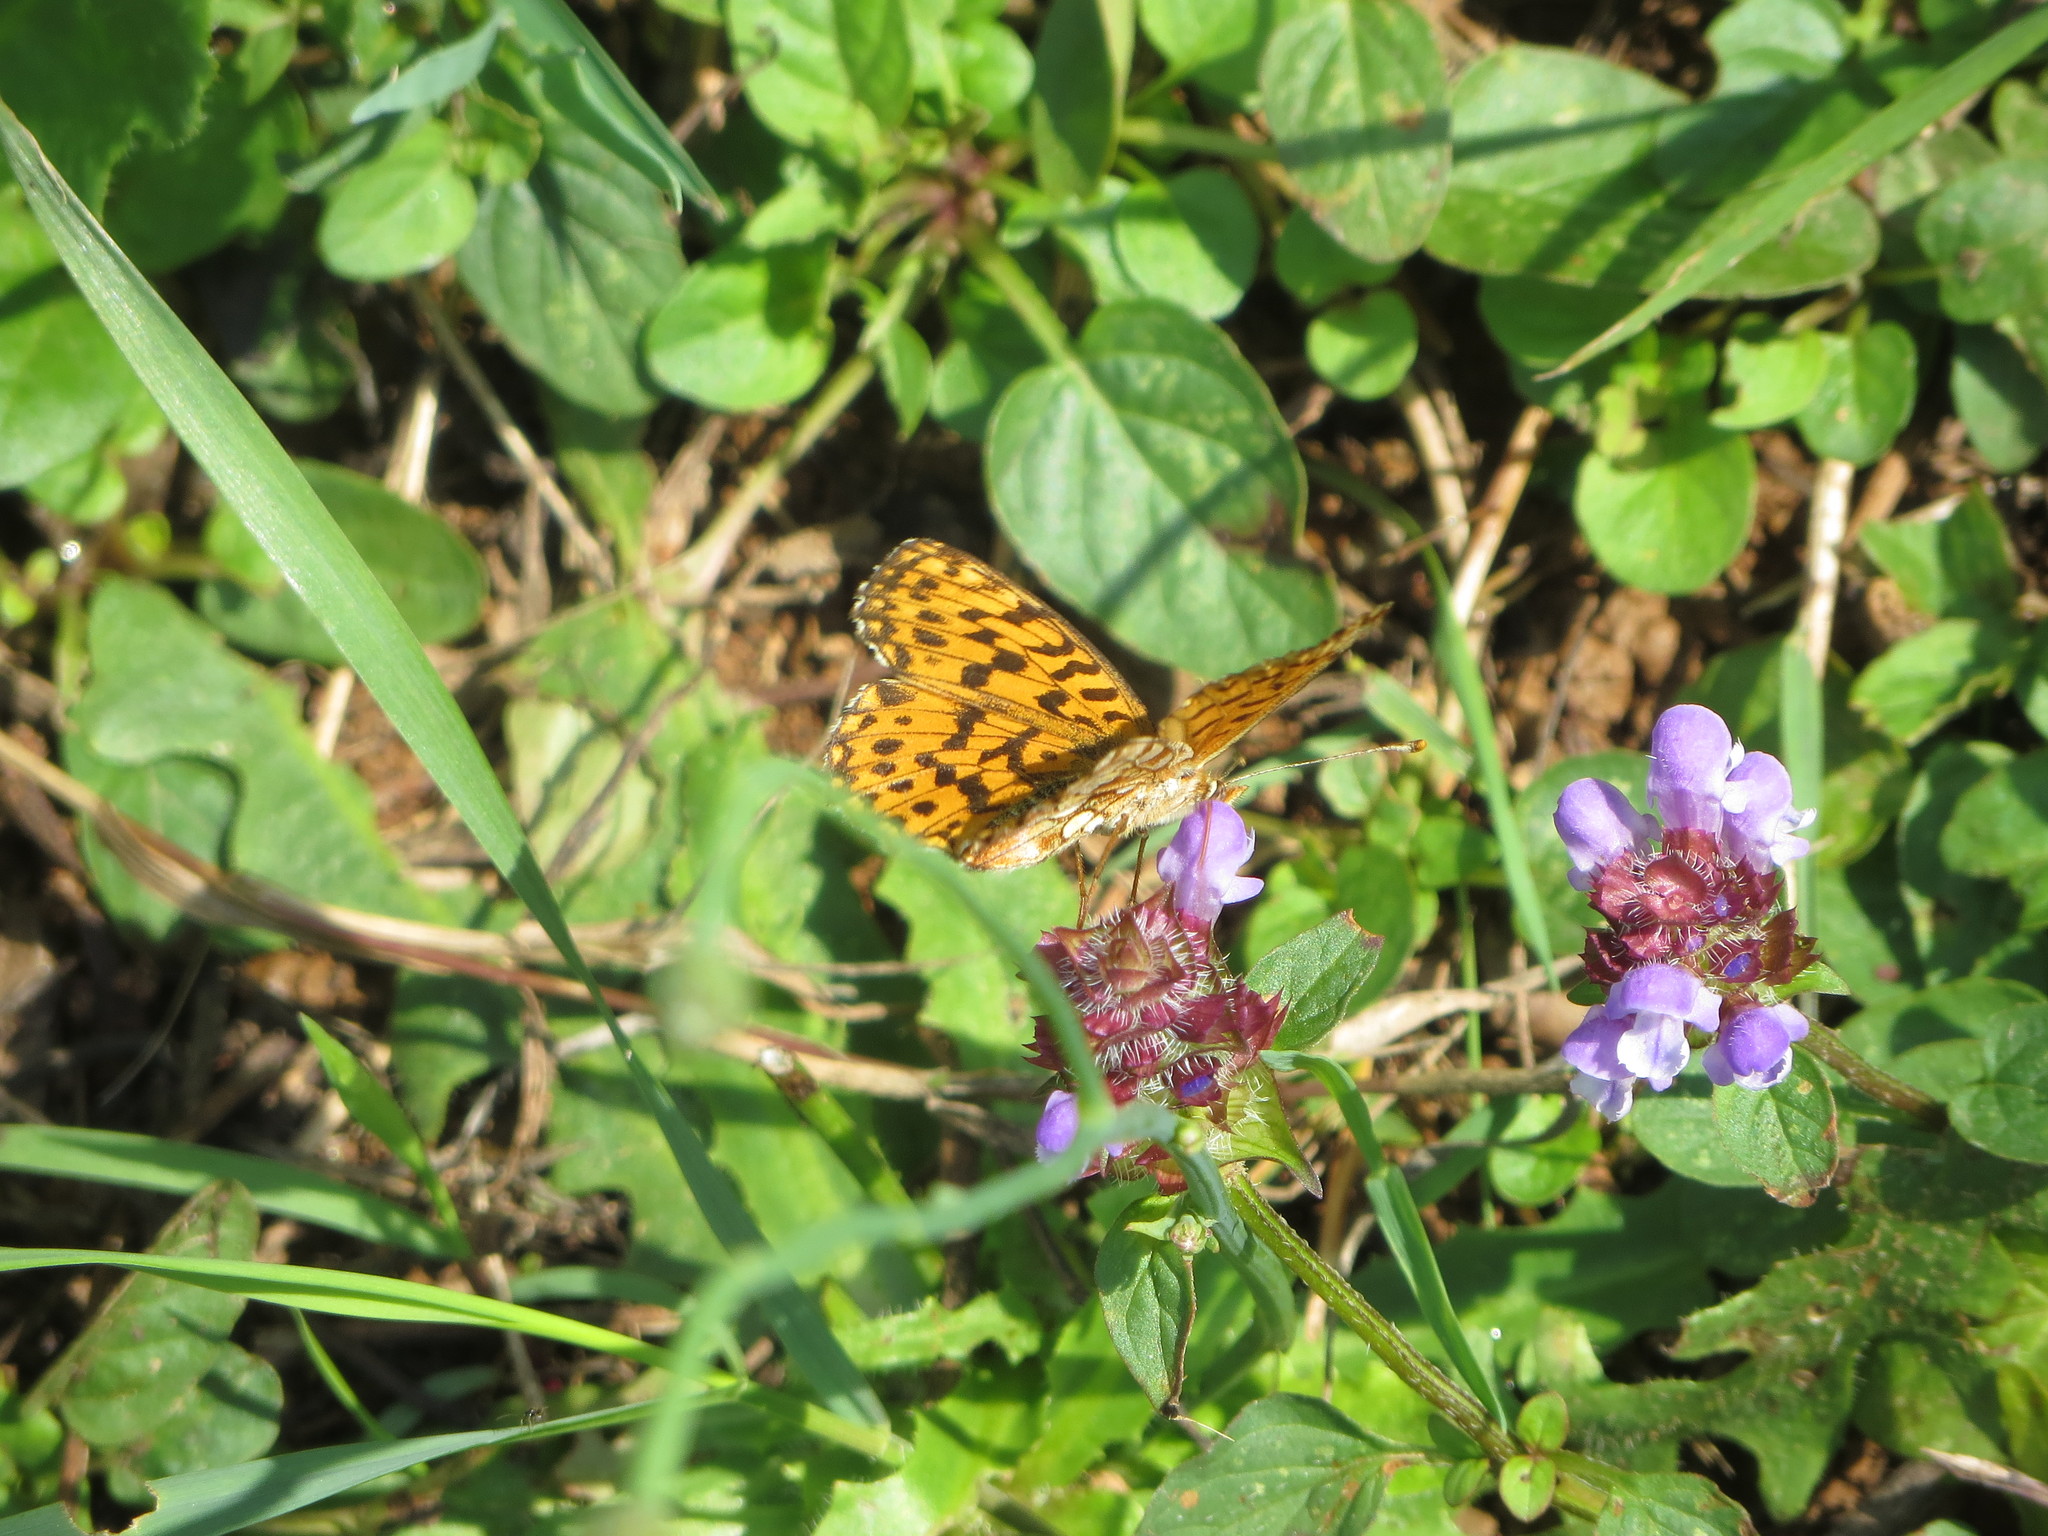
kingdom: Animalia
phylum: Arthropoda
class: Insecta
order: Lepidoptera
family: Nymphalidae
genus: Boloria
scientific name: Boloria dia
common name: Weaver's fritillary
